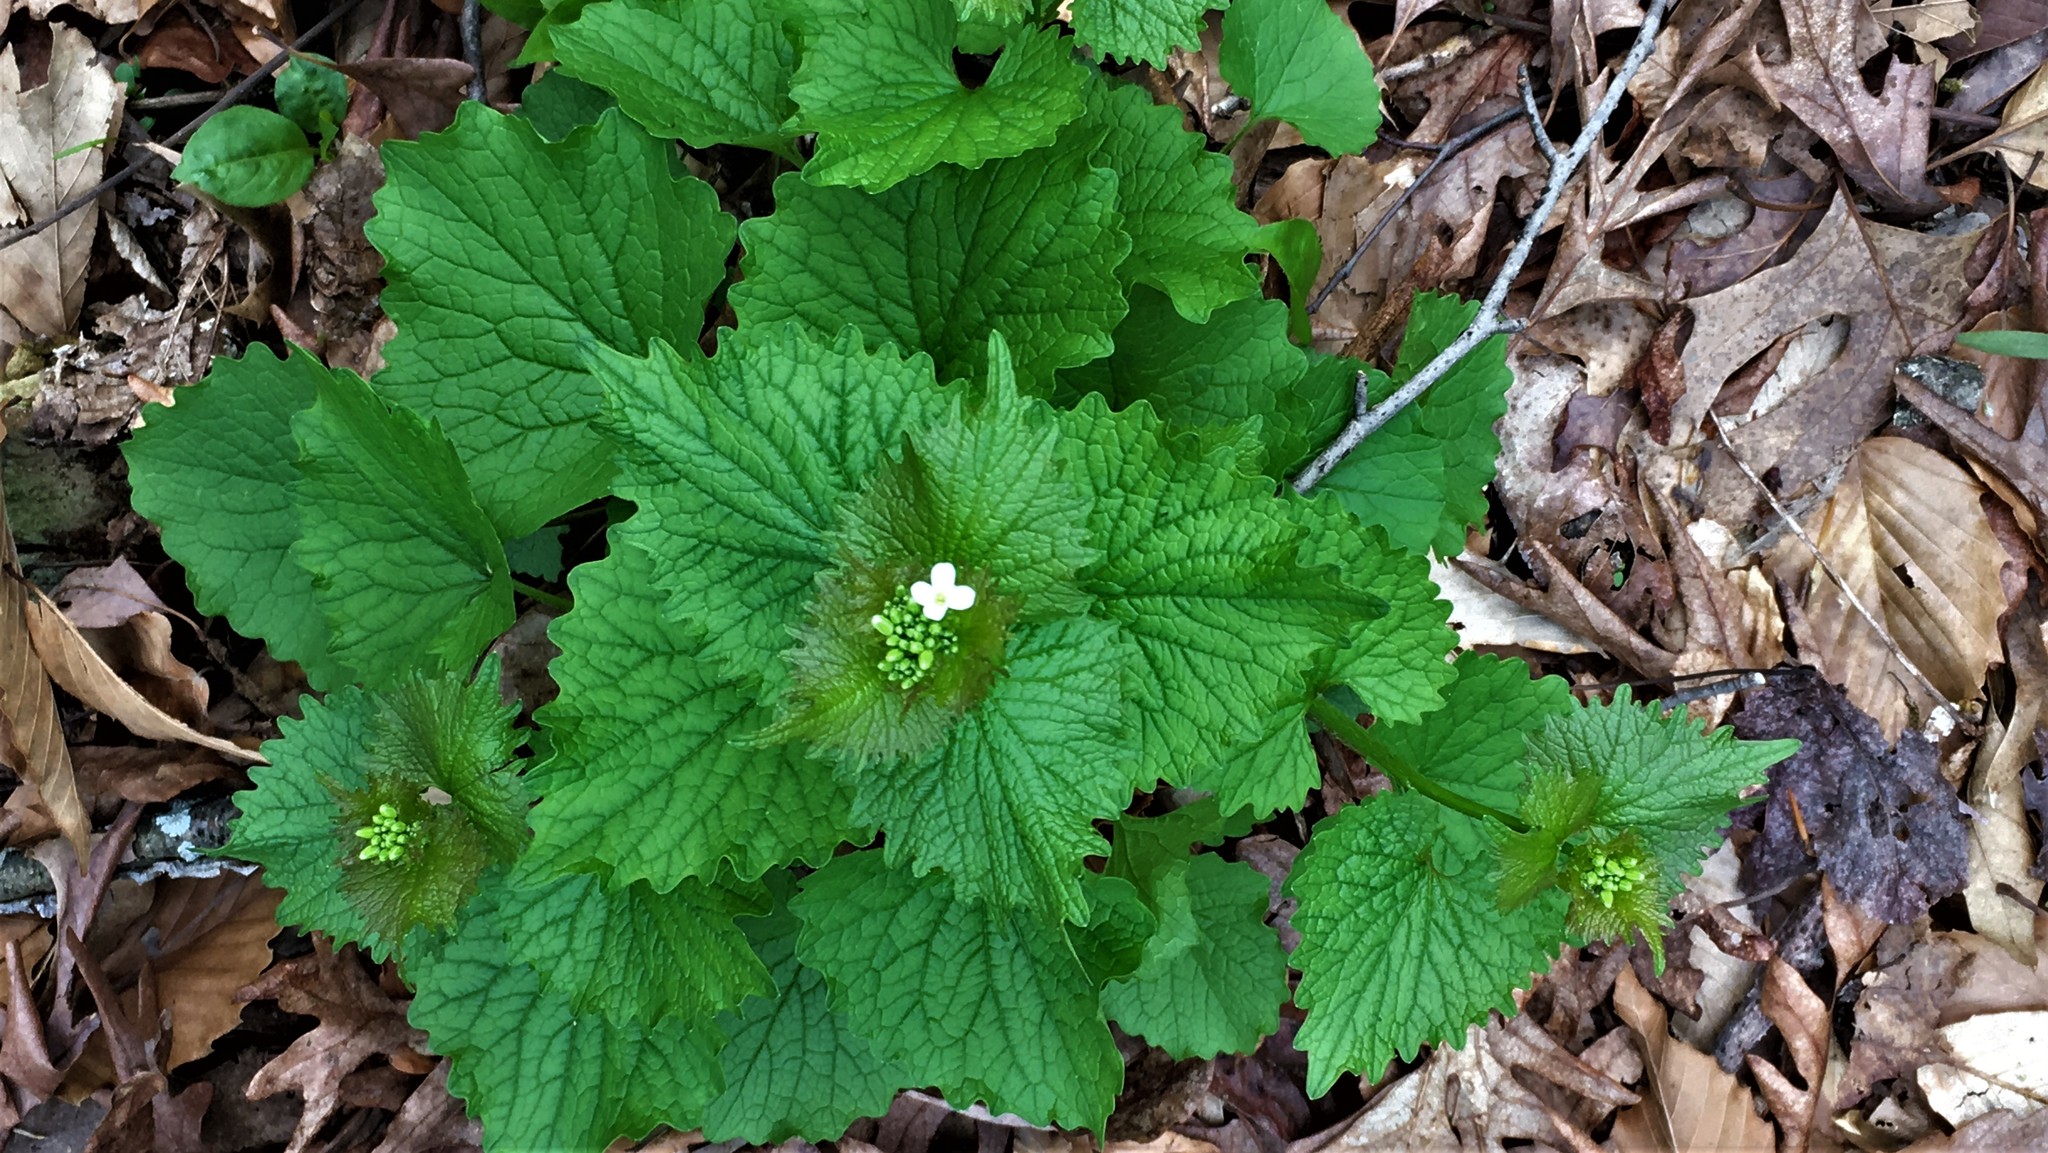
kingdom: Plantae
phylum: Tracheophyta
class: Magnoliopsida
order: Brassicales
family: Brassicaceae
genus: Alliaria
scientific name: Alliaria petiolata
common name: Garlic mustard
